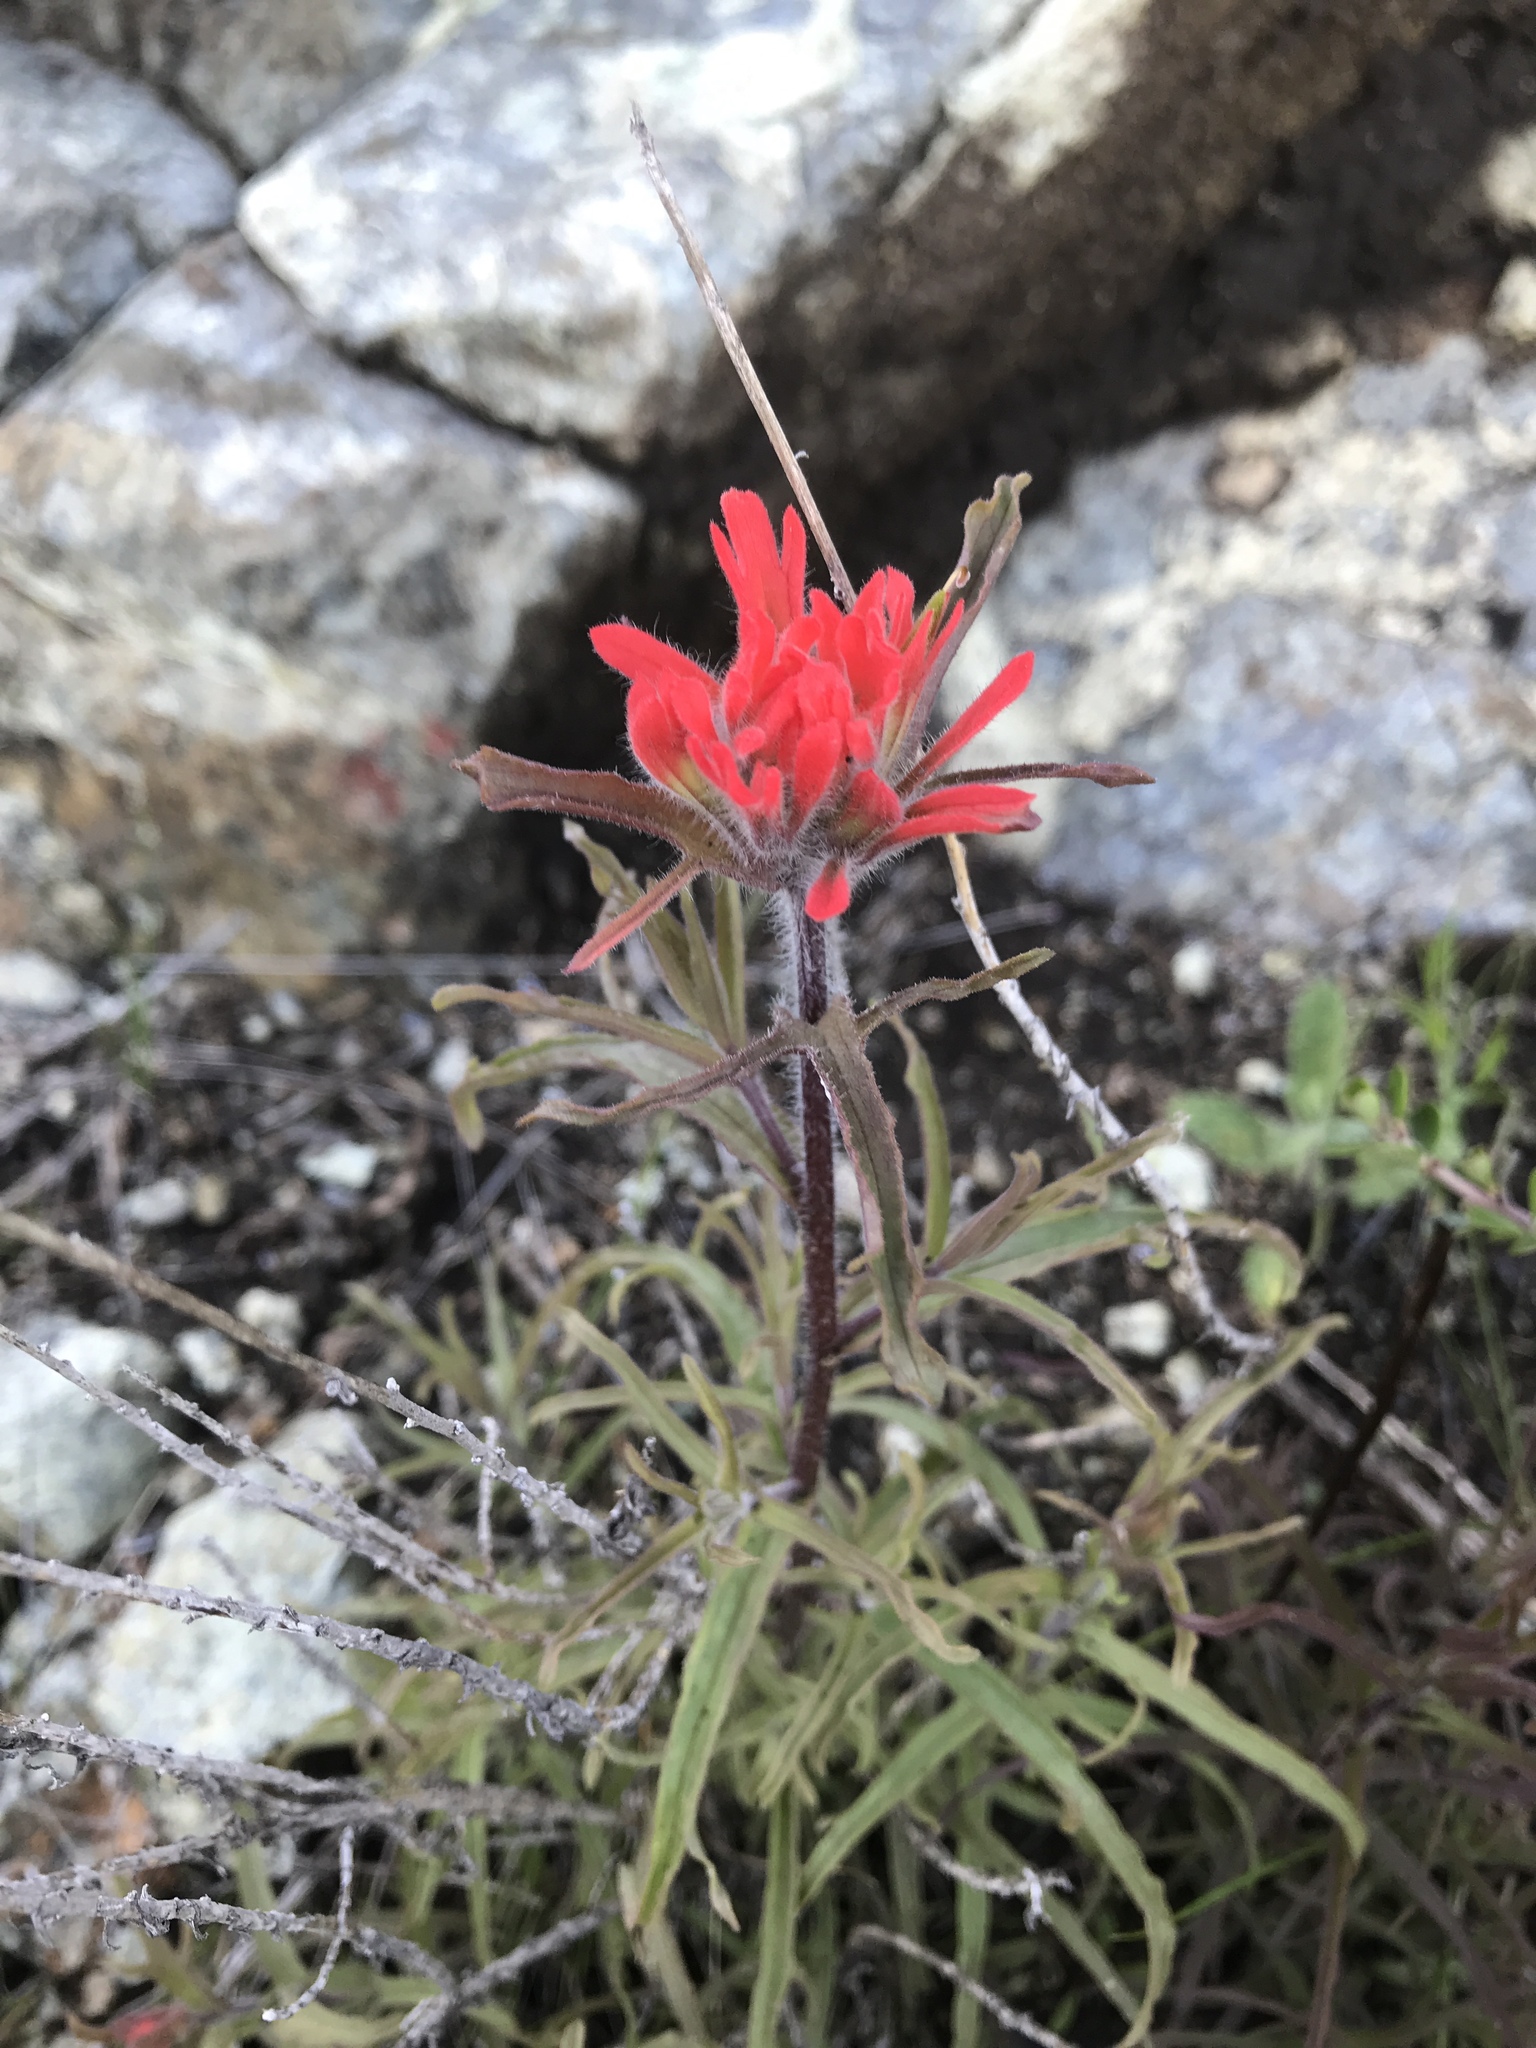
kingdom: Plantae
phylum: Tracheophyta
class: Magnoliopsida
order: Lamiales
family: Orobanchaceae
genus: Castilleja
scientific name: Castilleja affinis
